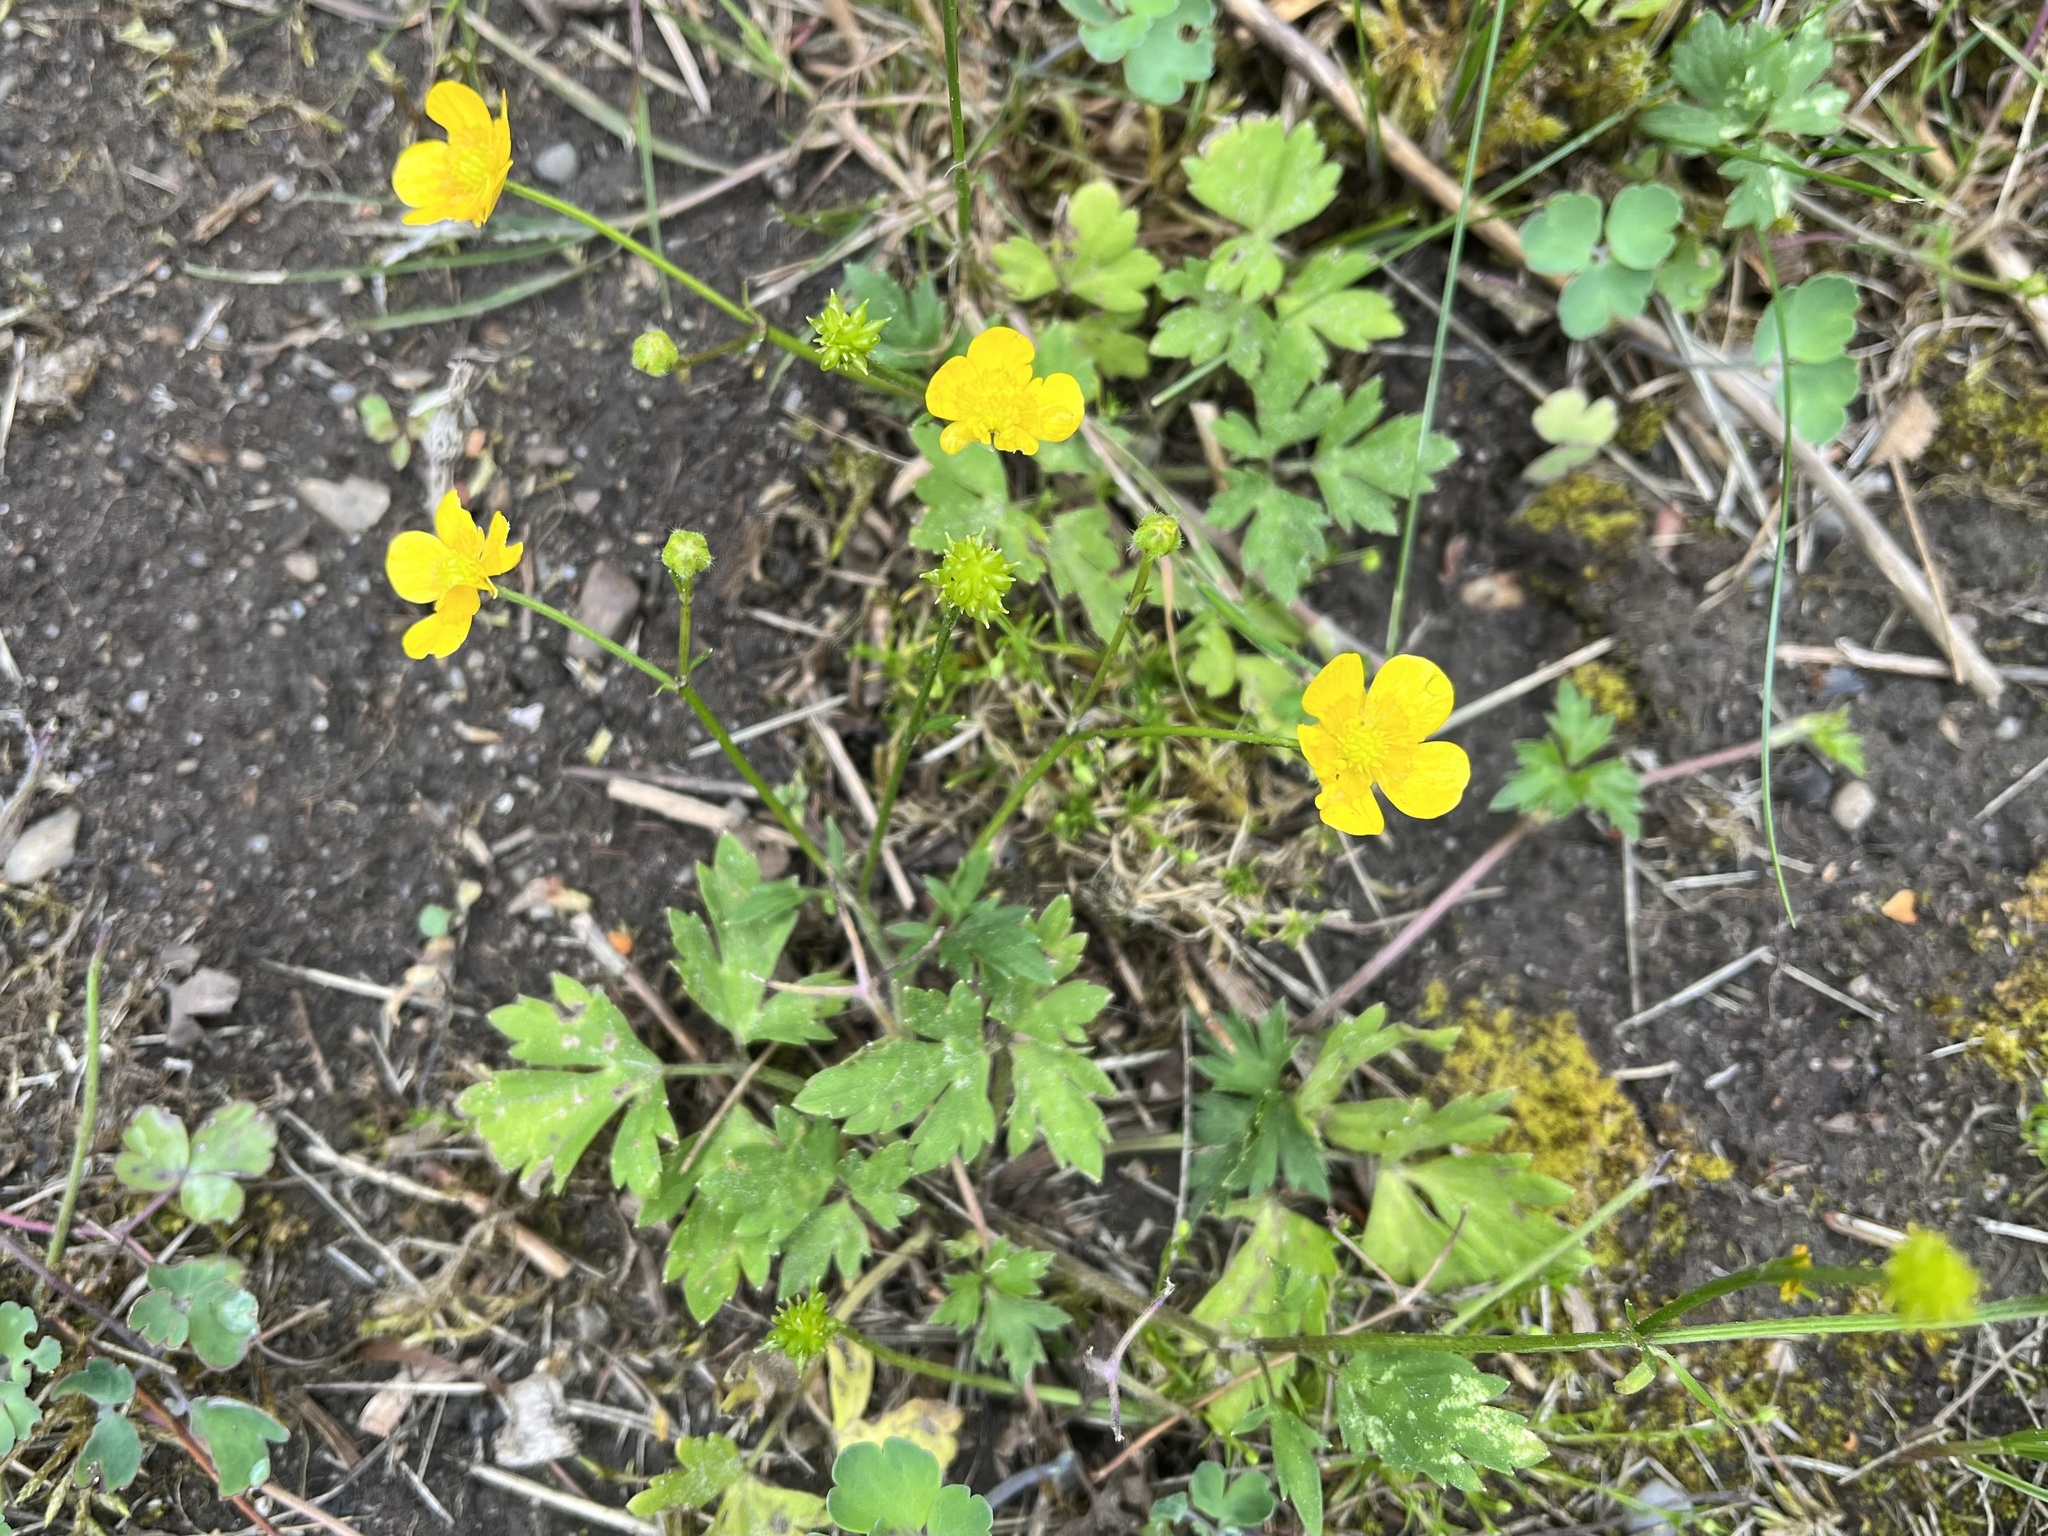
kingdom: Plantae
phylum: Tracheophyta
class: Magnoliopsida
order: Ranunculales
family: Ranunculaceae
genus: Ranunculus
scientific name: Ranunculus repens
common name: Creeping buttercup
